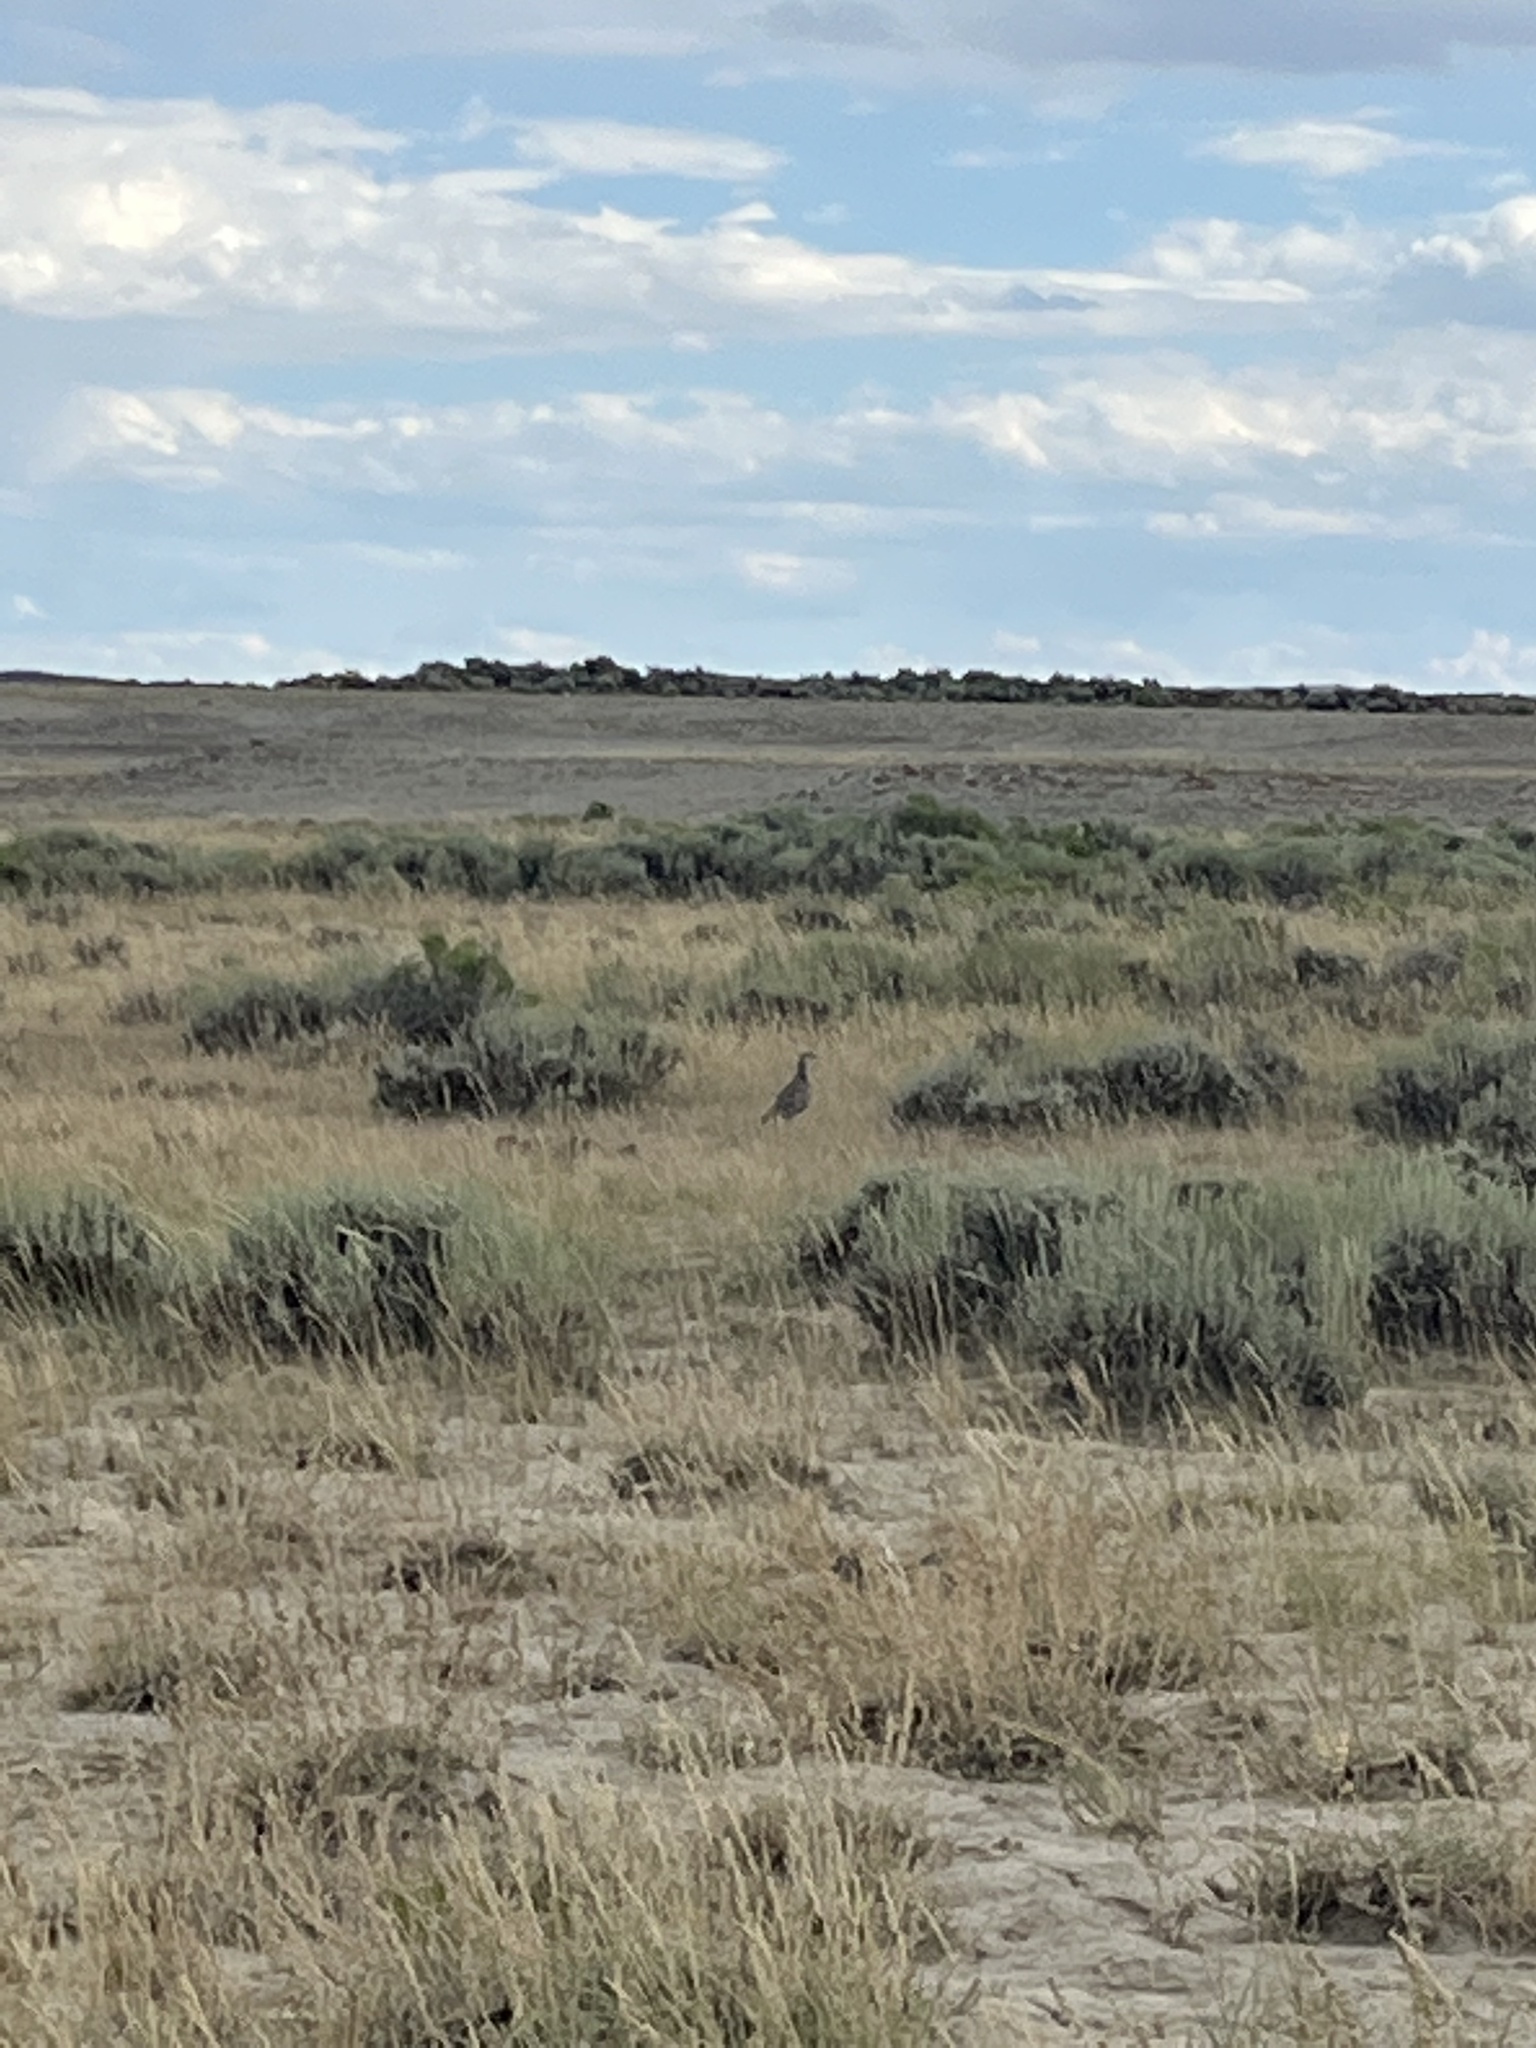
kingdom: Animalia
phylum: Chordata
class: Aves
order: Galliformes
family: Phasianidae
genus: Centrocercus
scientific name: Centrocercus urophasianus
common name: Sage grouse
